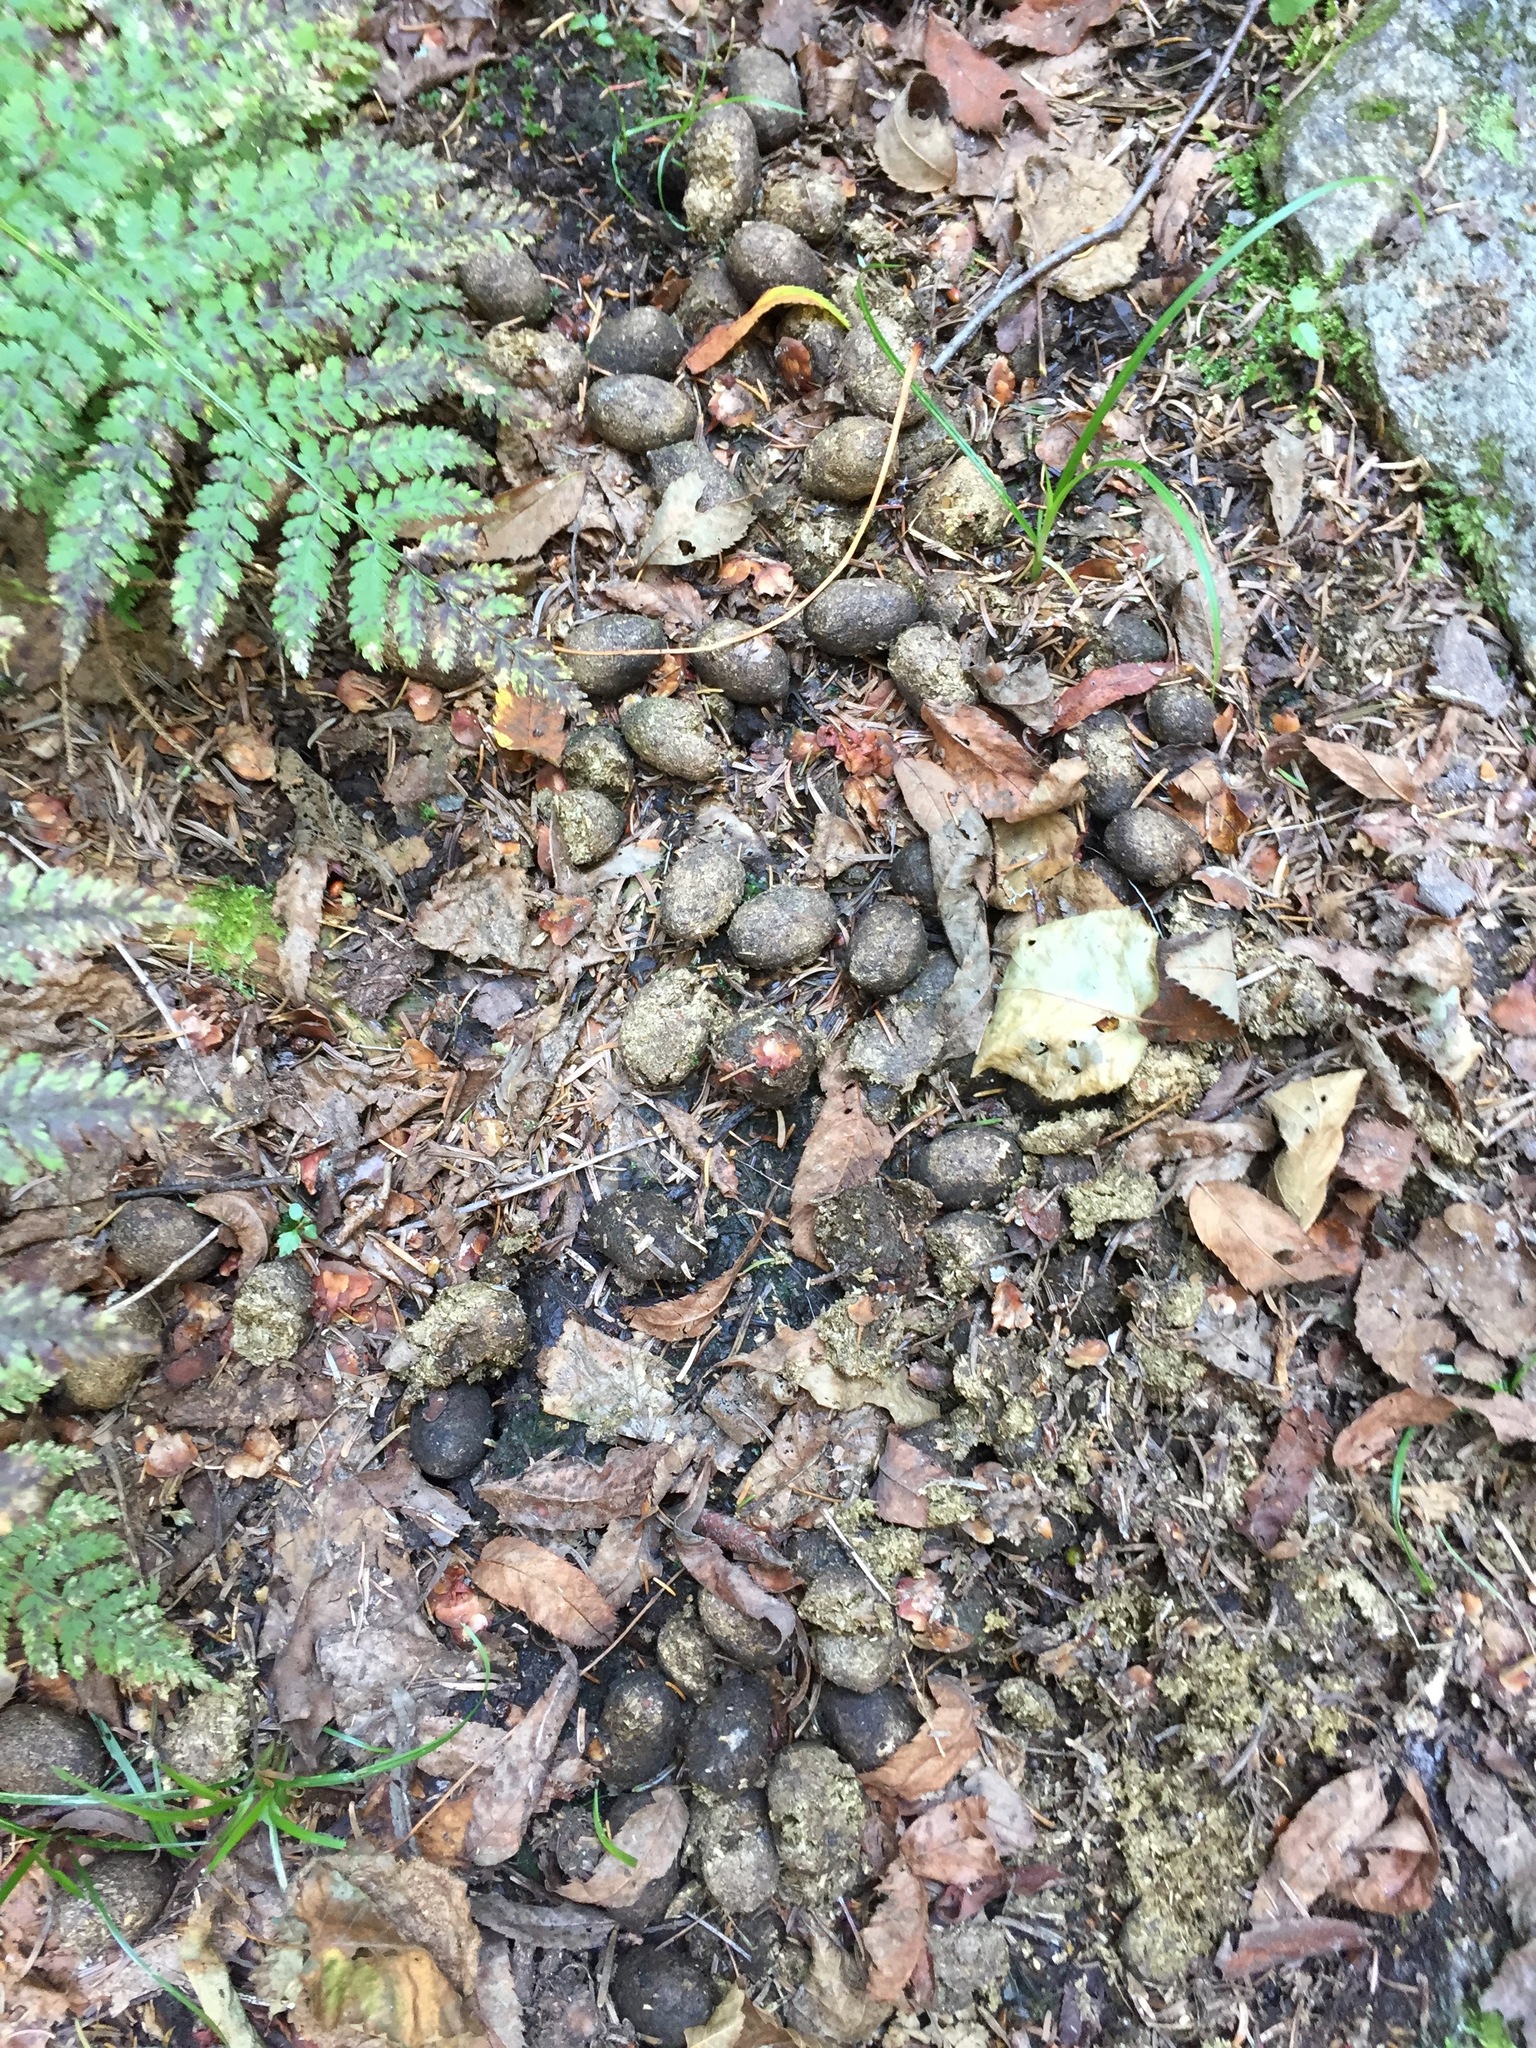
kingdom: Animalia
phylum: Chordata
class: Mammalia
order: Artiodactyla
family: Cervidae
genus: Alces
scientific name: Alces alces
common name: Moose
